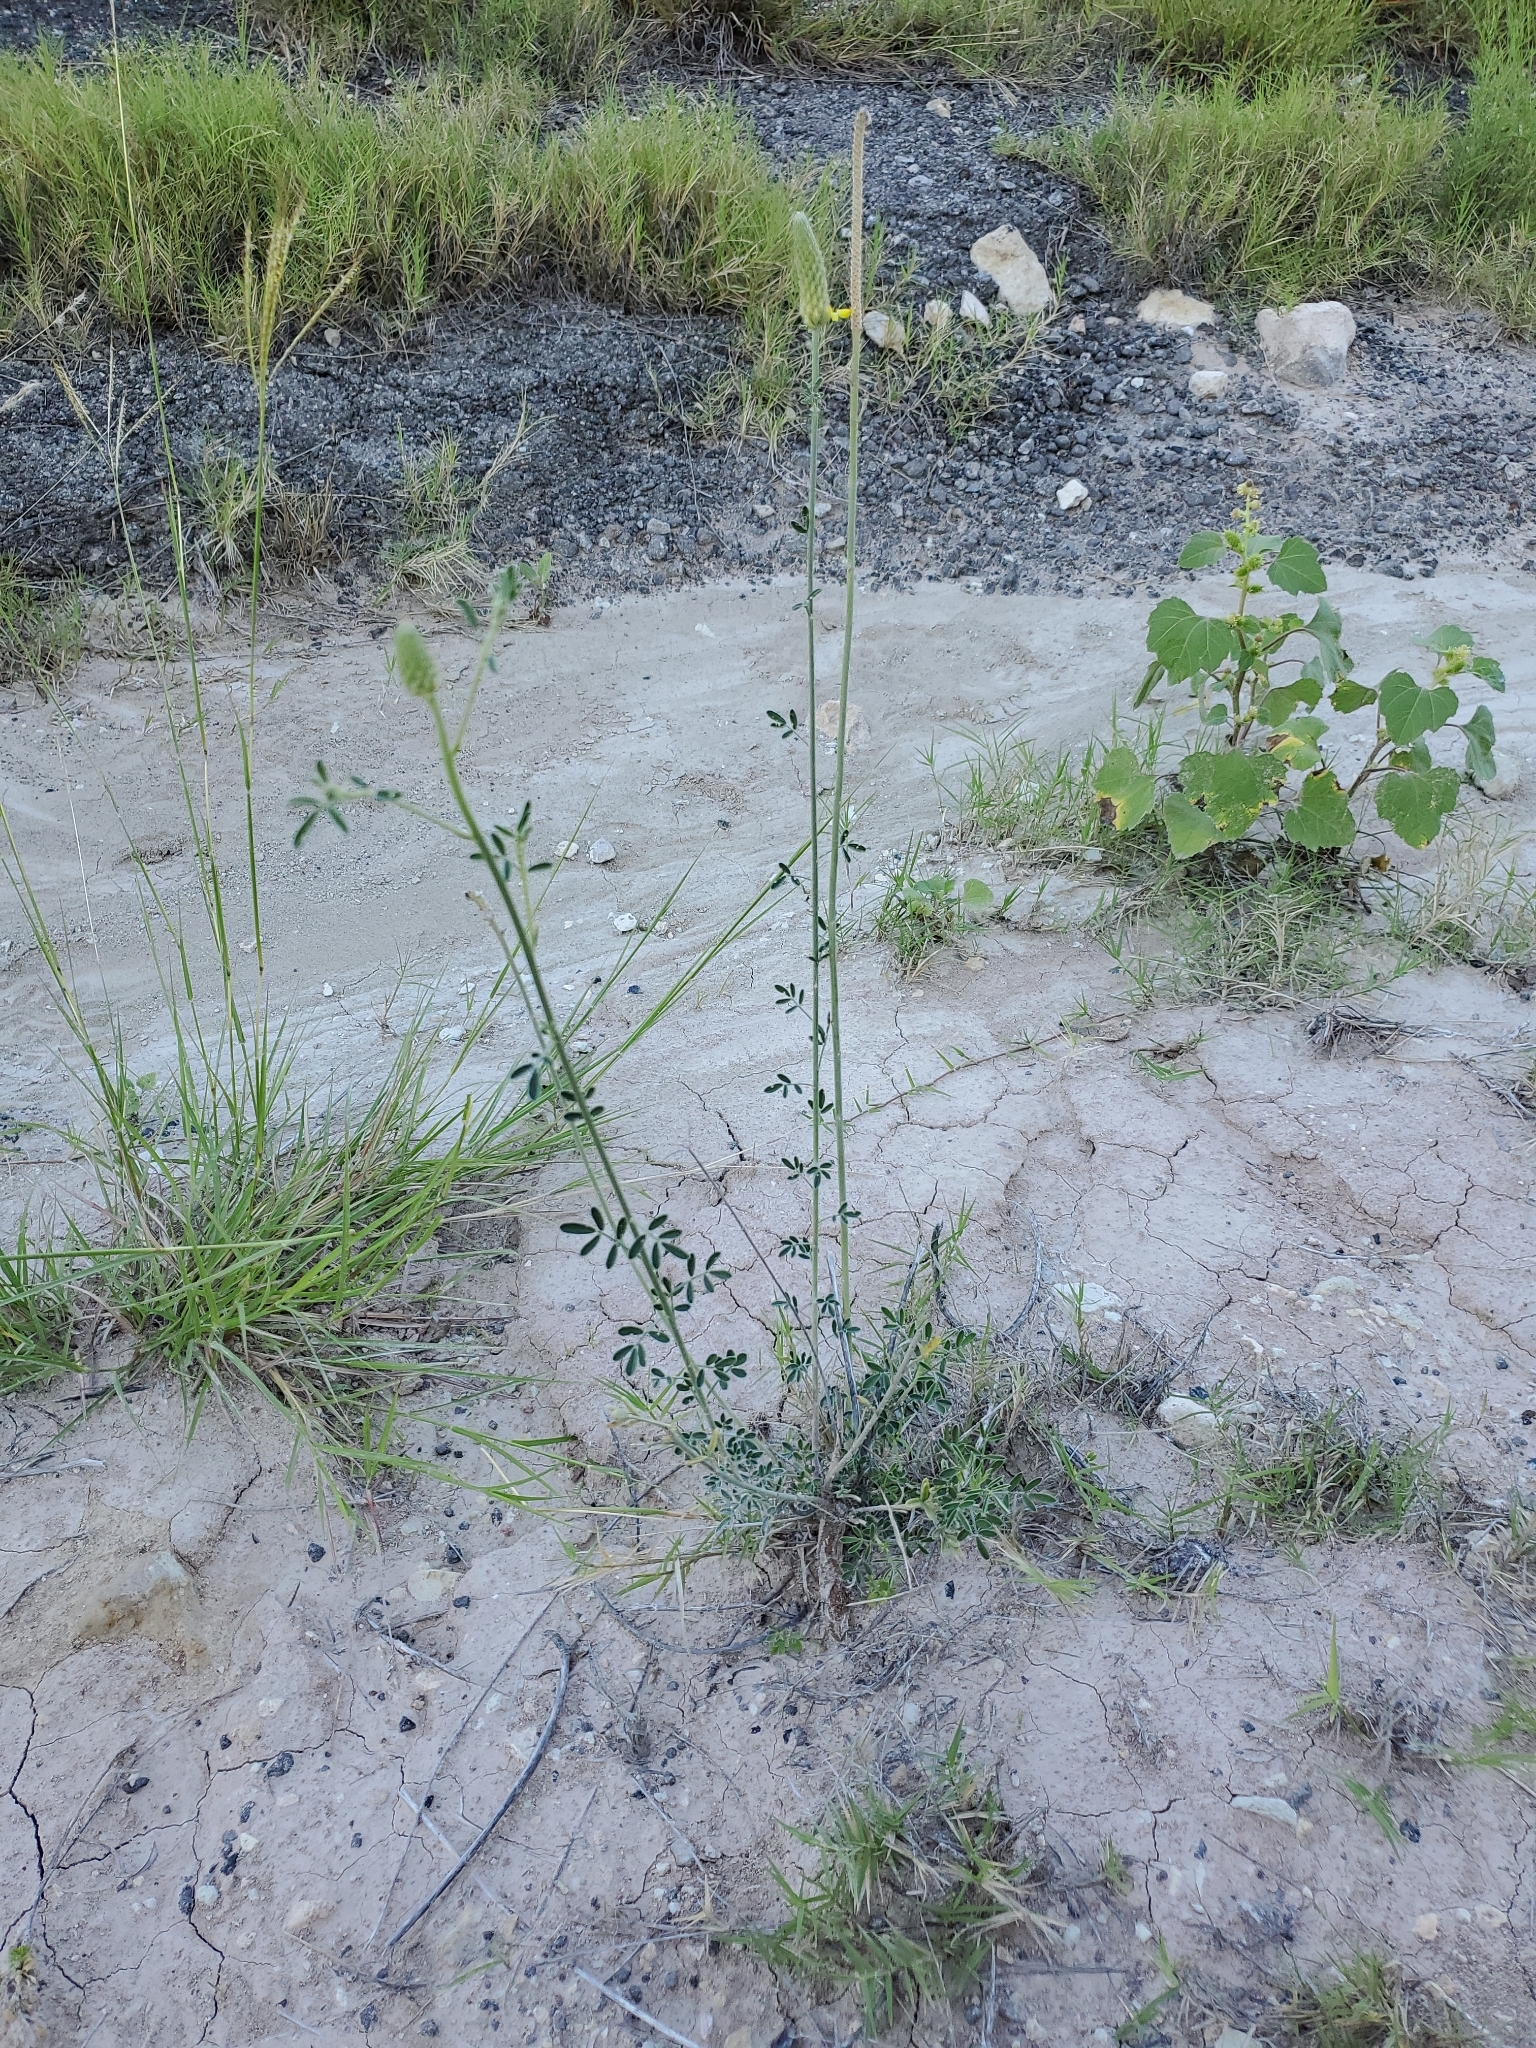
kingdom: Plantae
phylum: Tracheophyta
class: Magnoliopsida
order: Fabales
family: Fabaceae
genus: Dalea
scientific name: Dalea aurea
